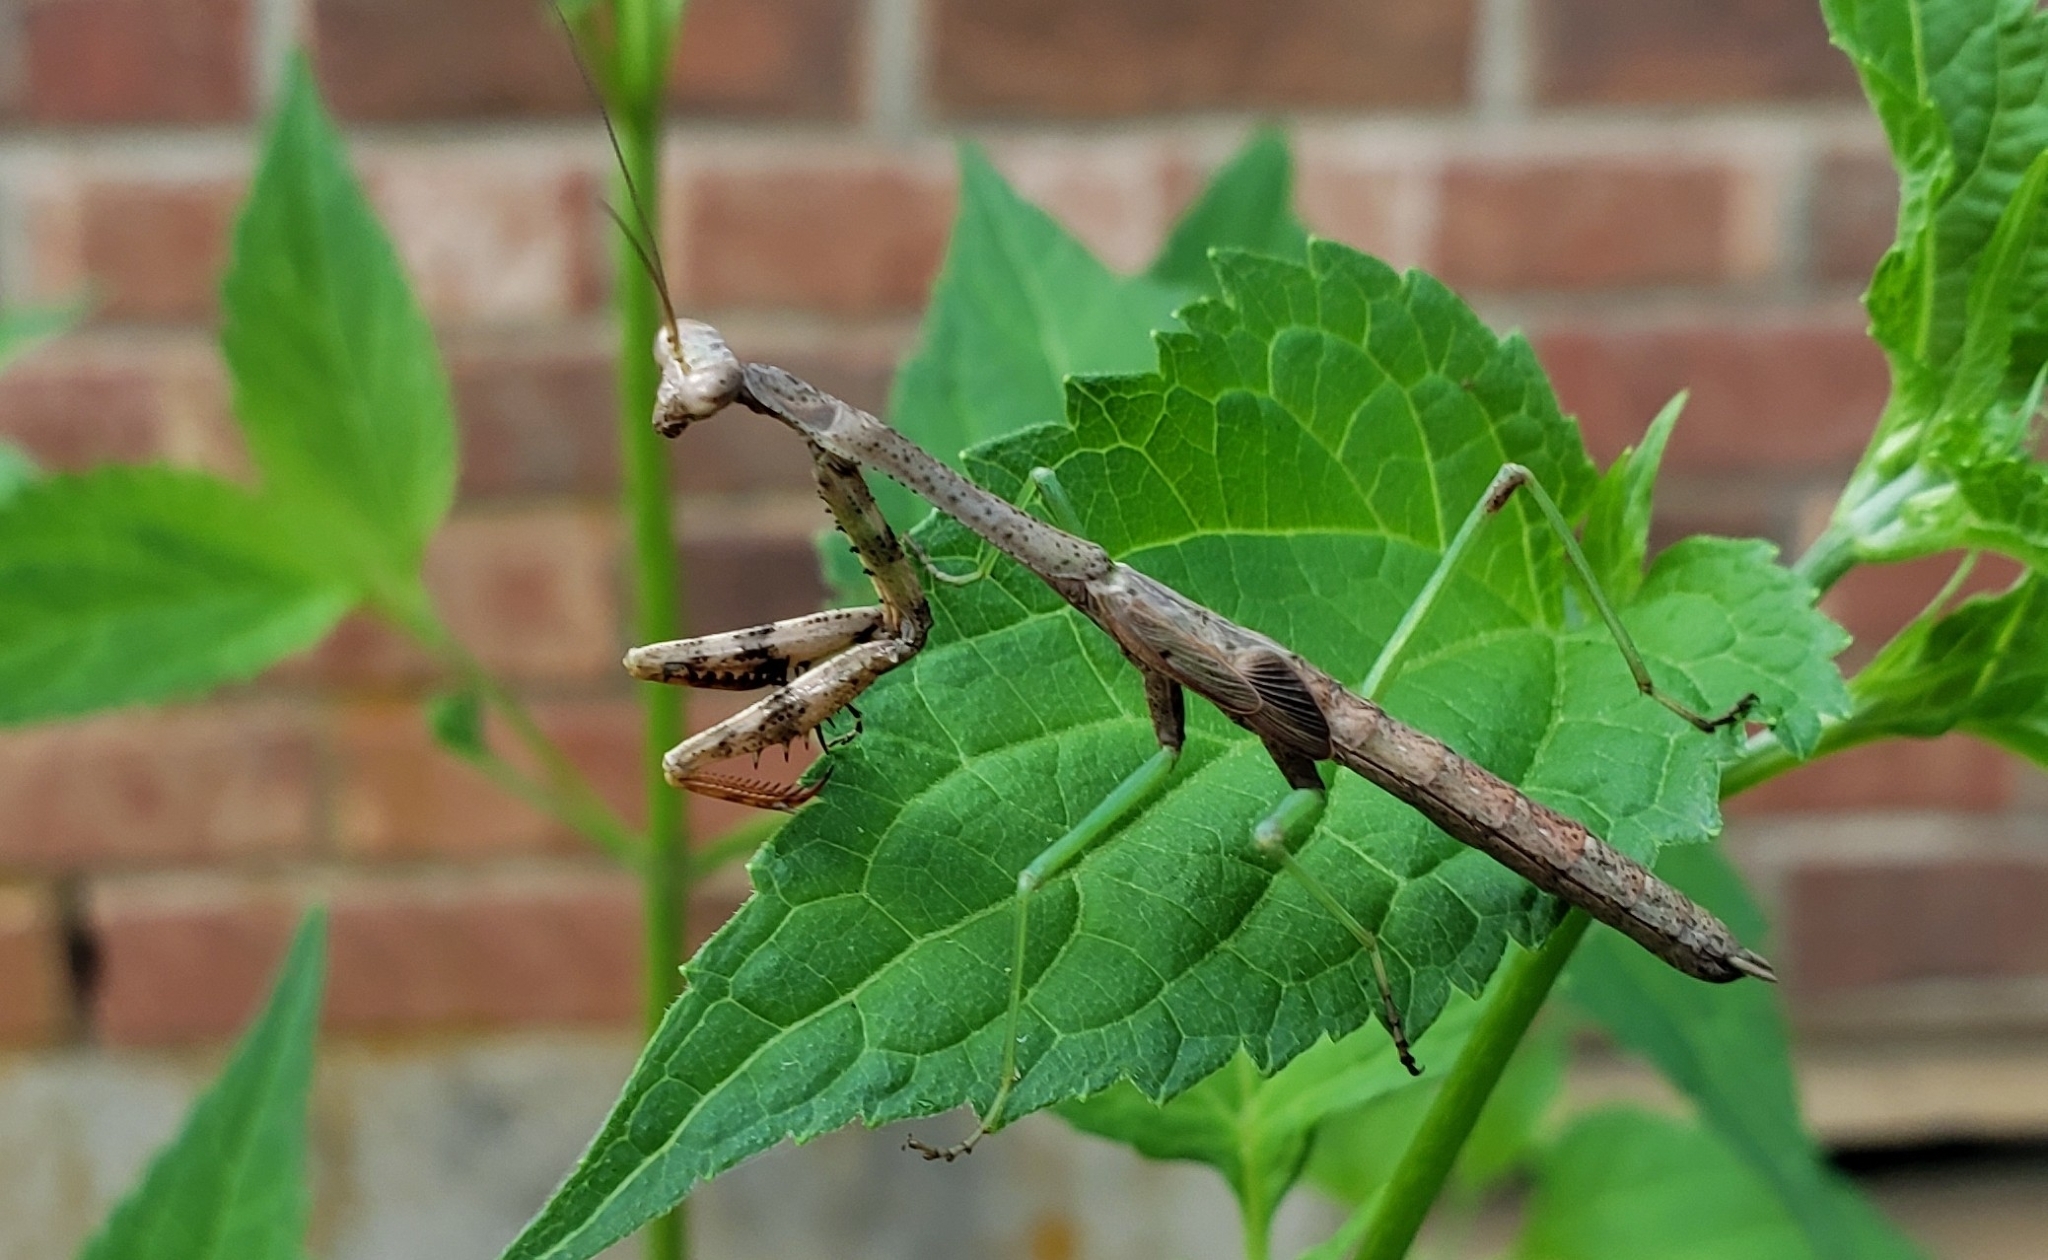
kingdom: Animalia
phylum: Arthropoda
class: Insecta
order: Mantodea
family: Mantidae
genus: Stagmomantis
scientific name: Stagmomantis carolina
